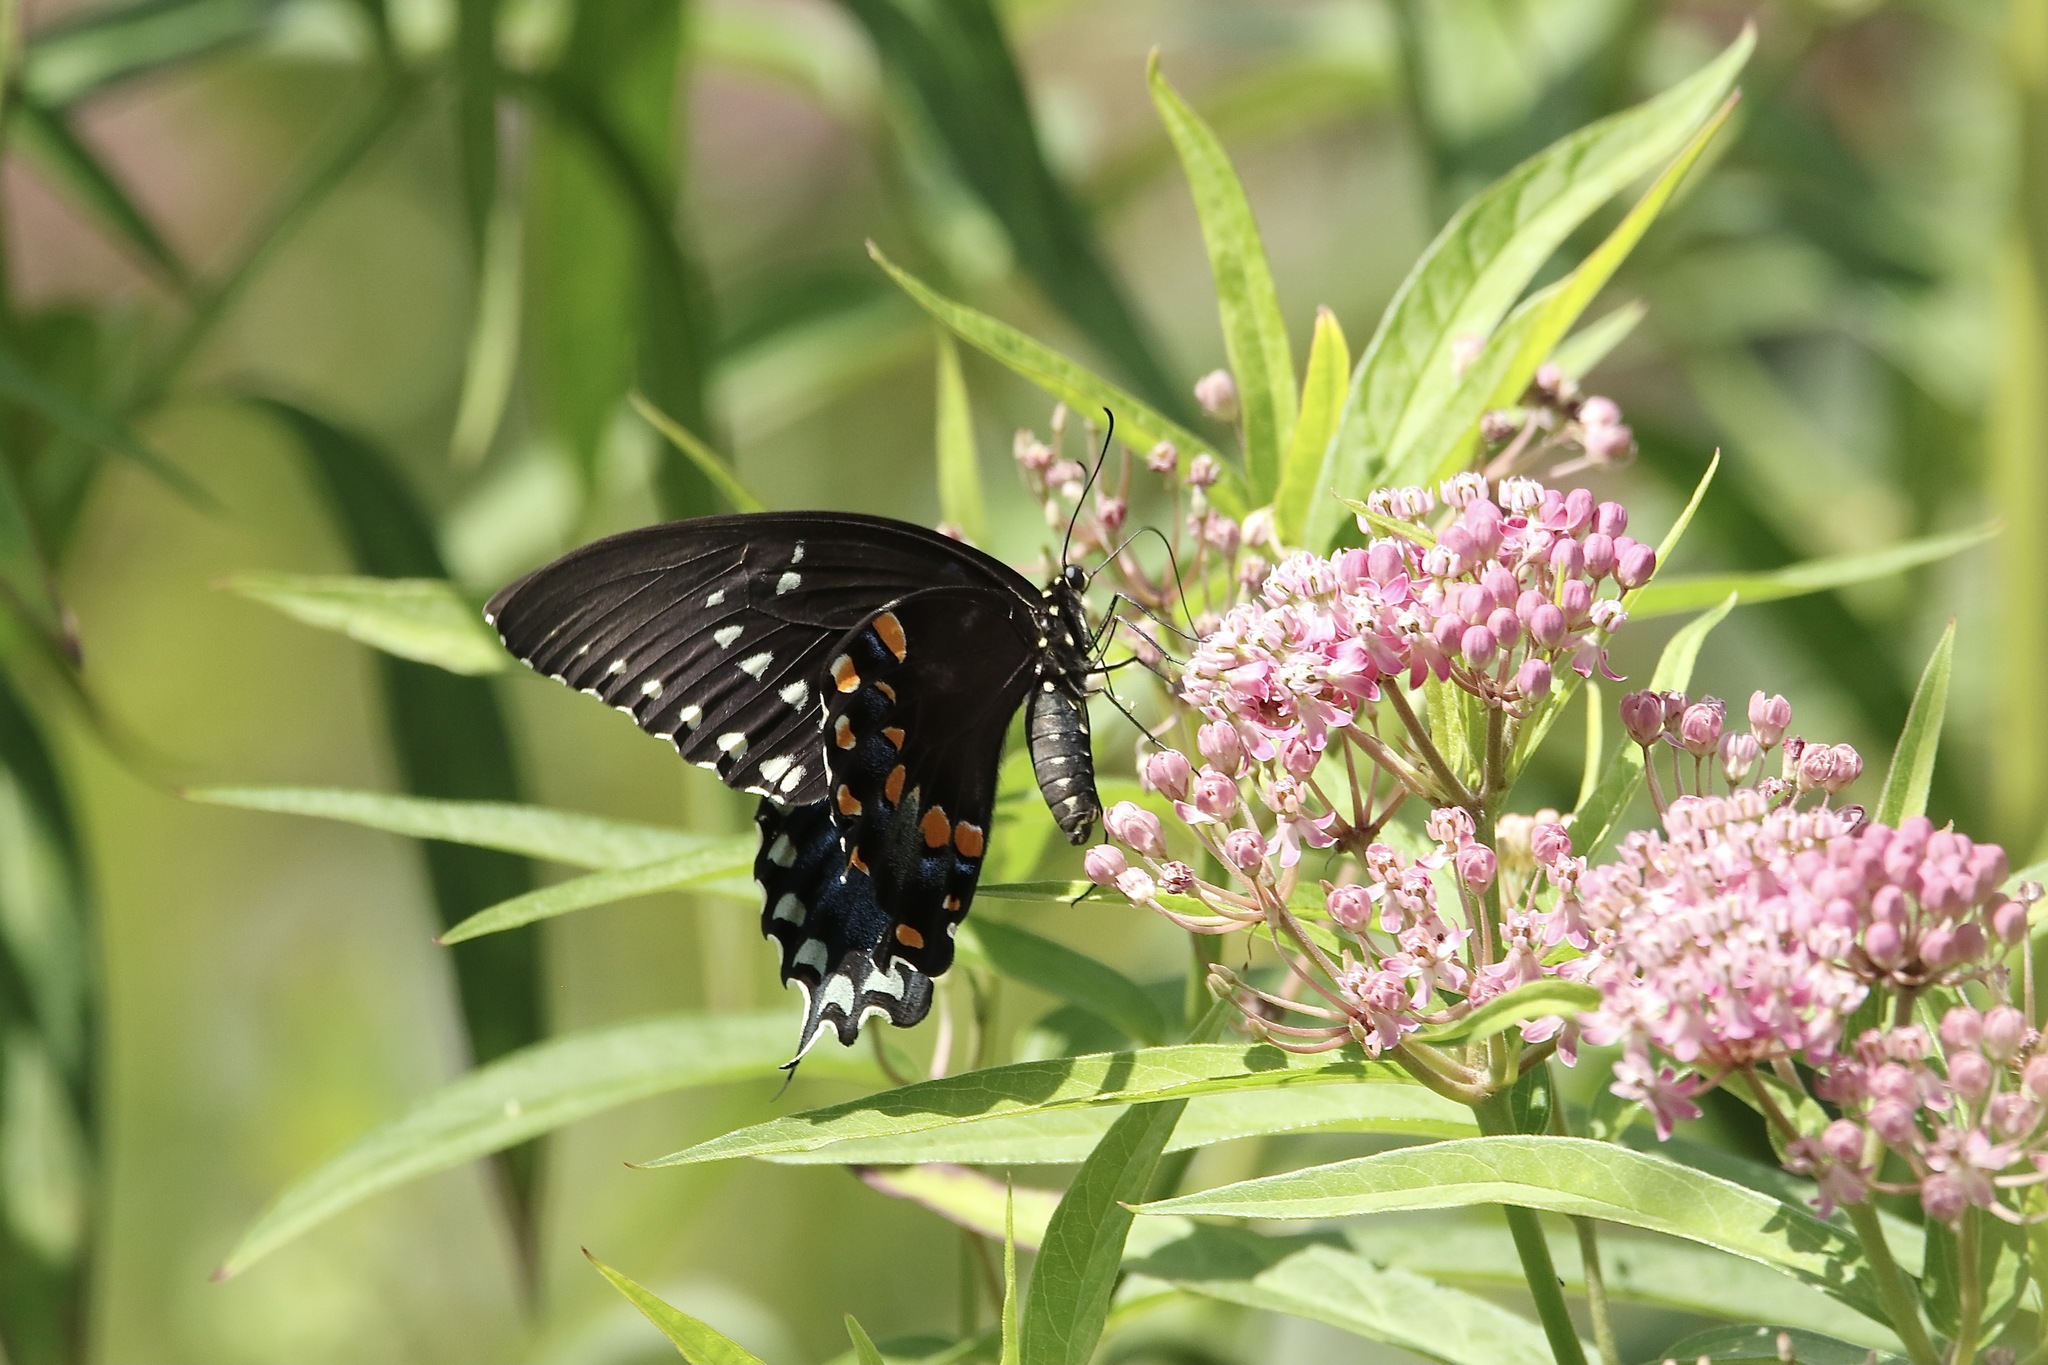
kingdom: Animalia
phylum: Arthropoda
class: Insecta
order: Lepidoptera
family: Papilionidae
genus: Papilio
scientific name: Papilio troilus
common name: Spicebush swallowtail
